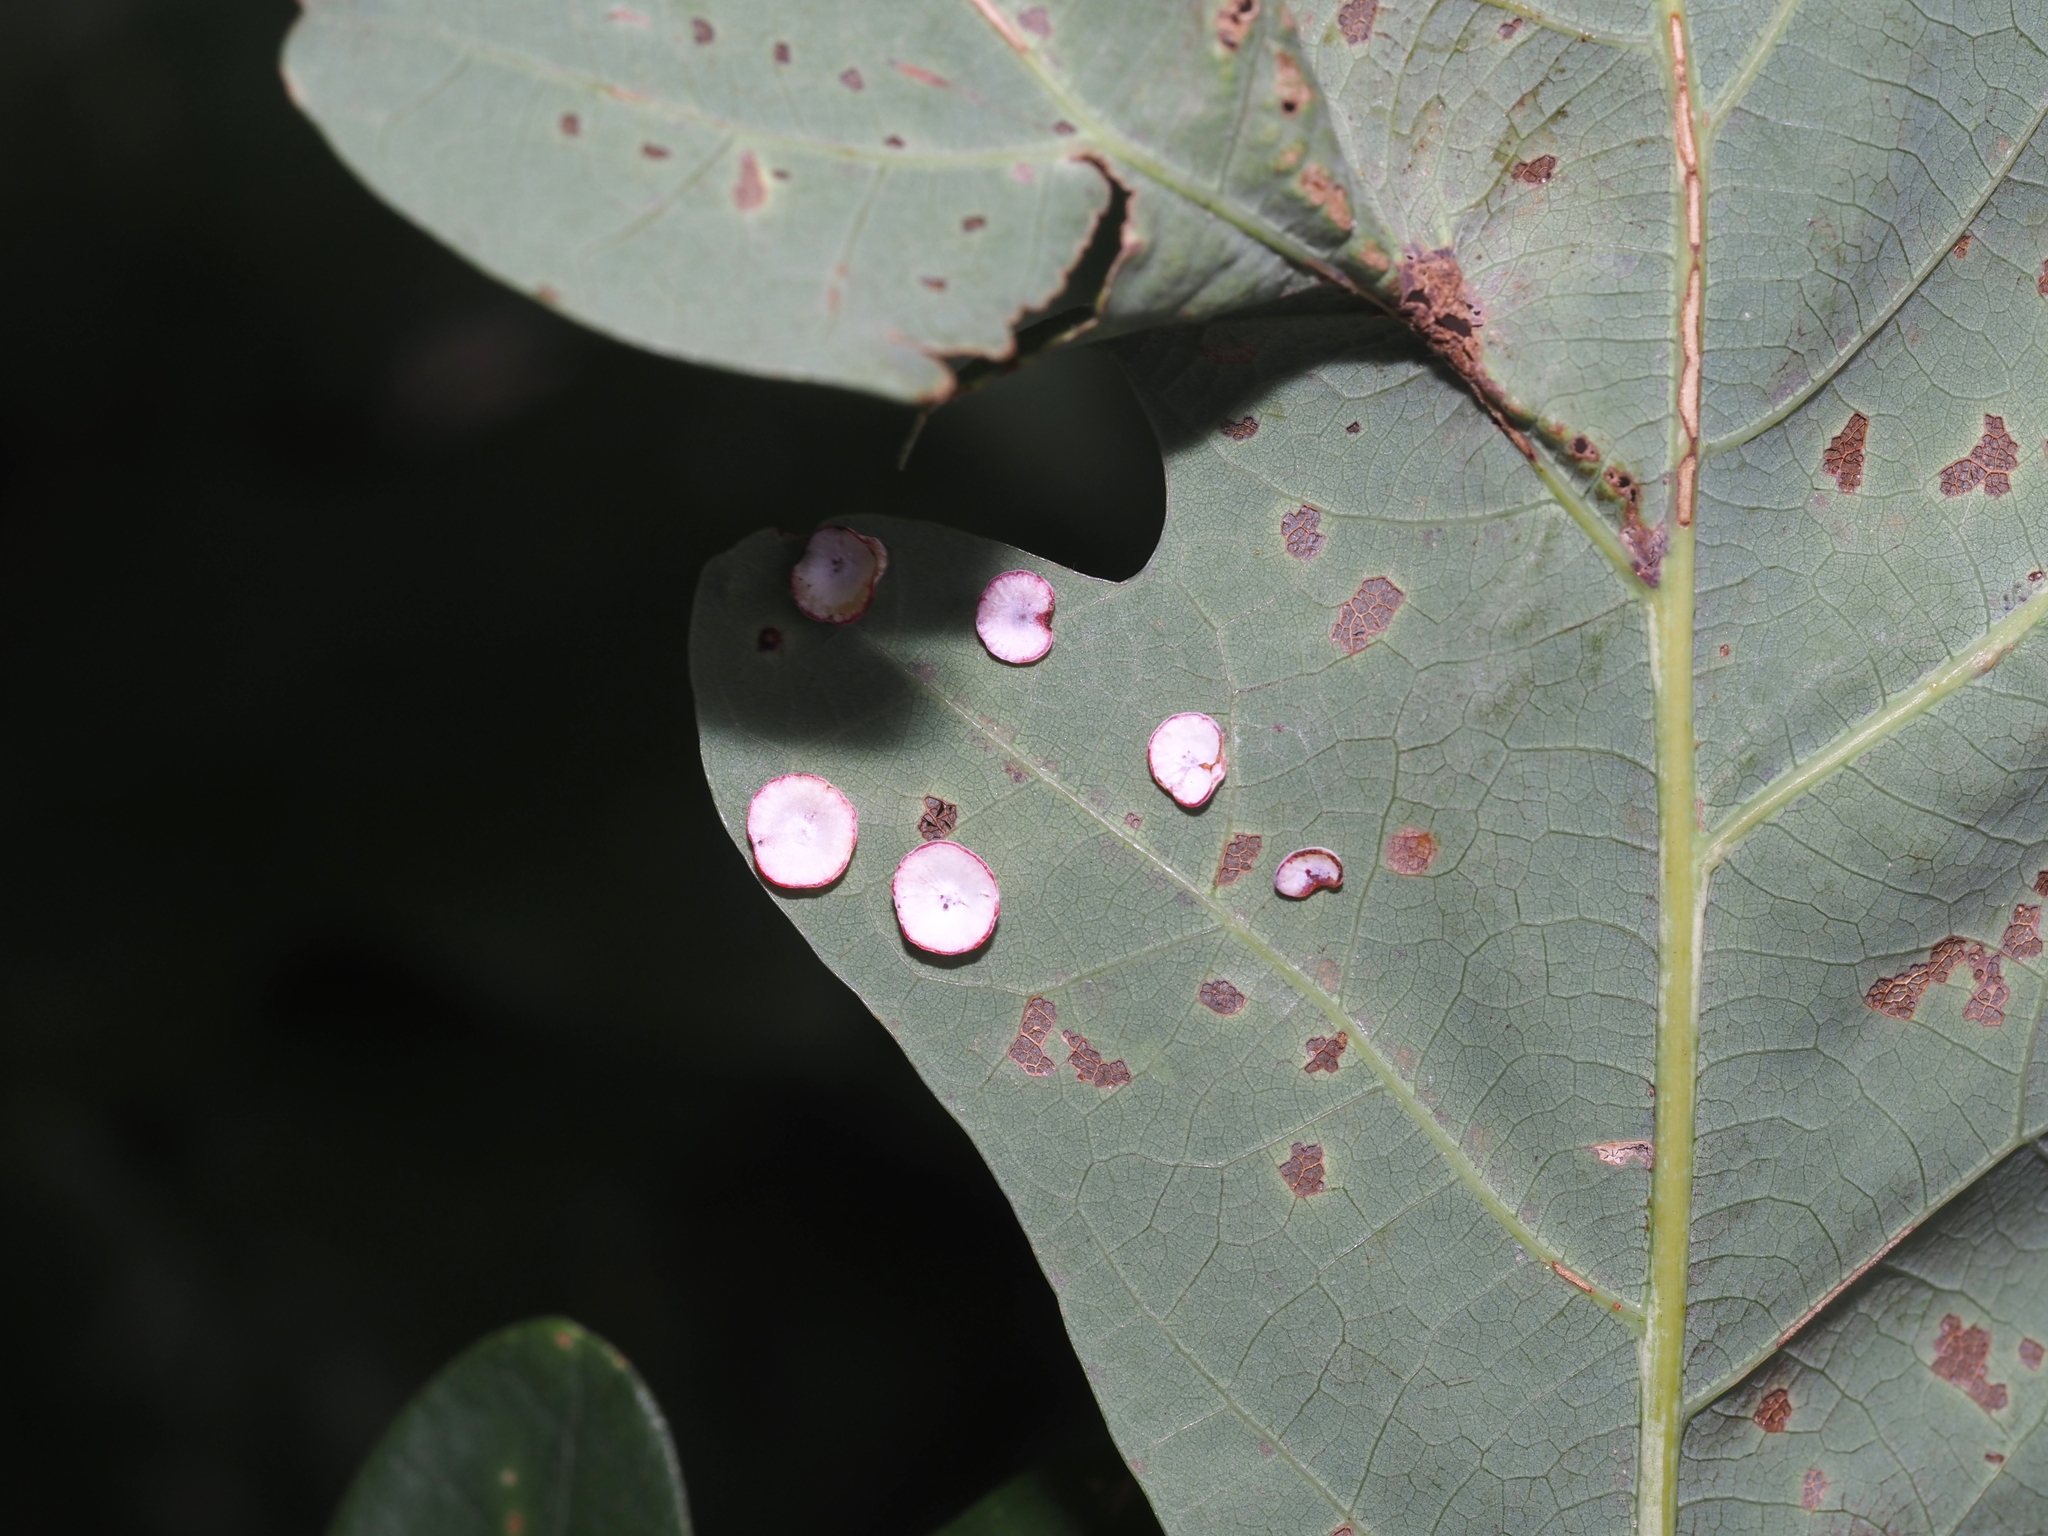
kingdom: Animalia
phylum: Arthropoda
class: Insecta
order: Hymenoptera
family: Cynipidae
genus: Phylloteras
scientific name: Phylloteras poculum
